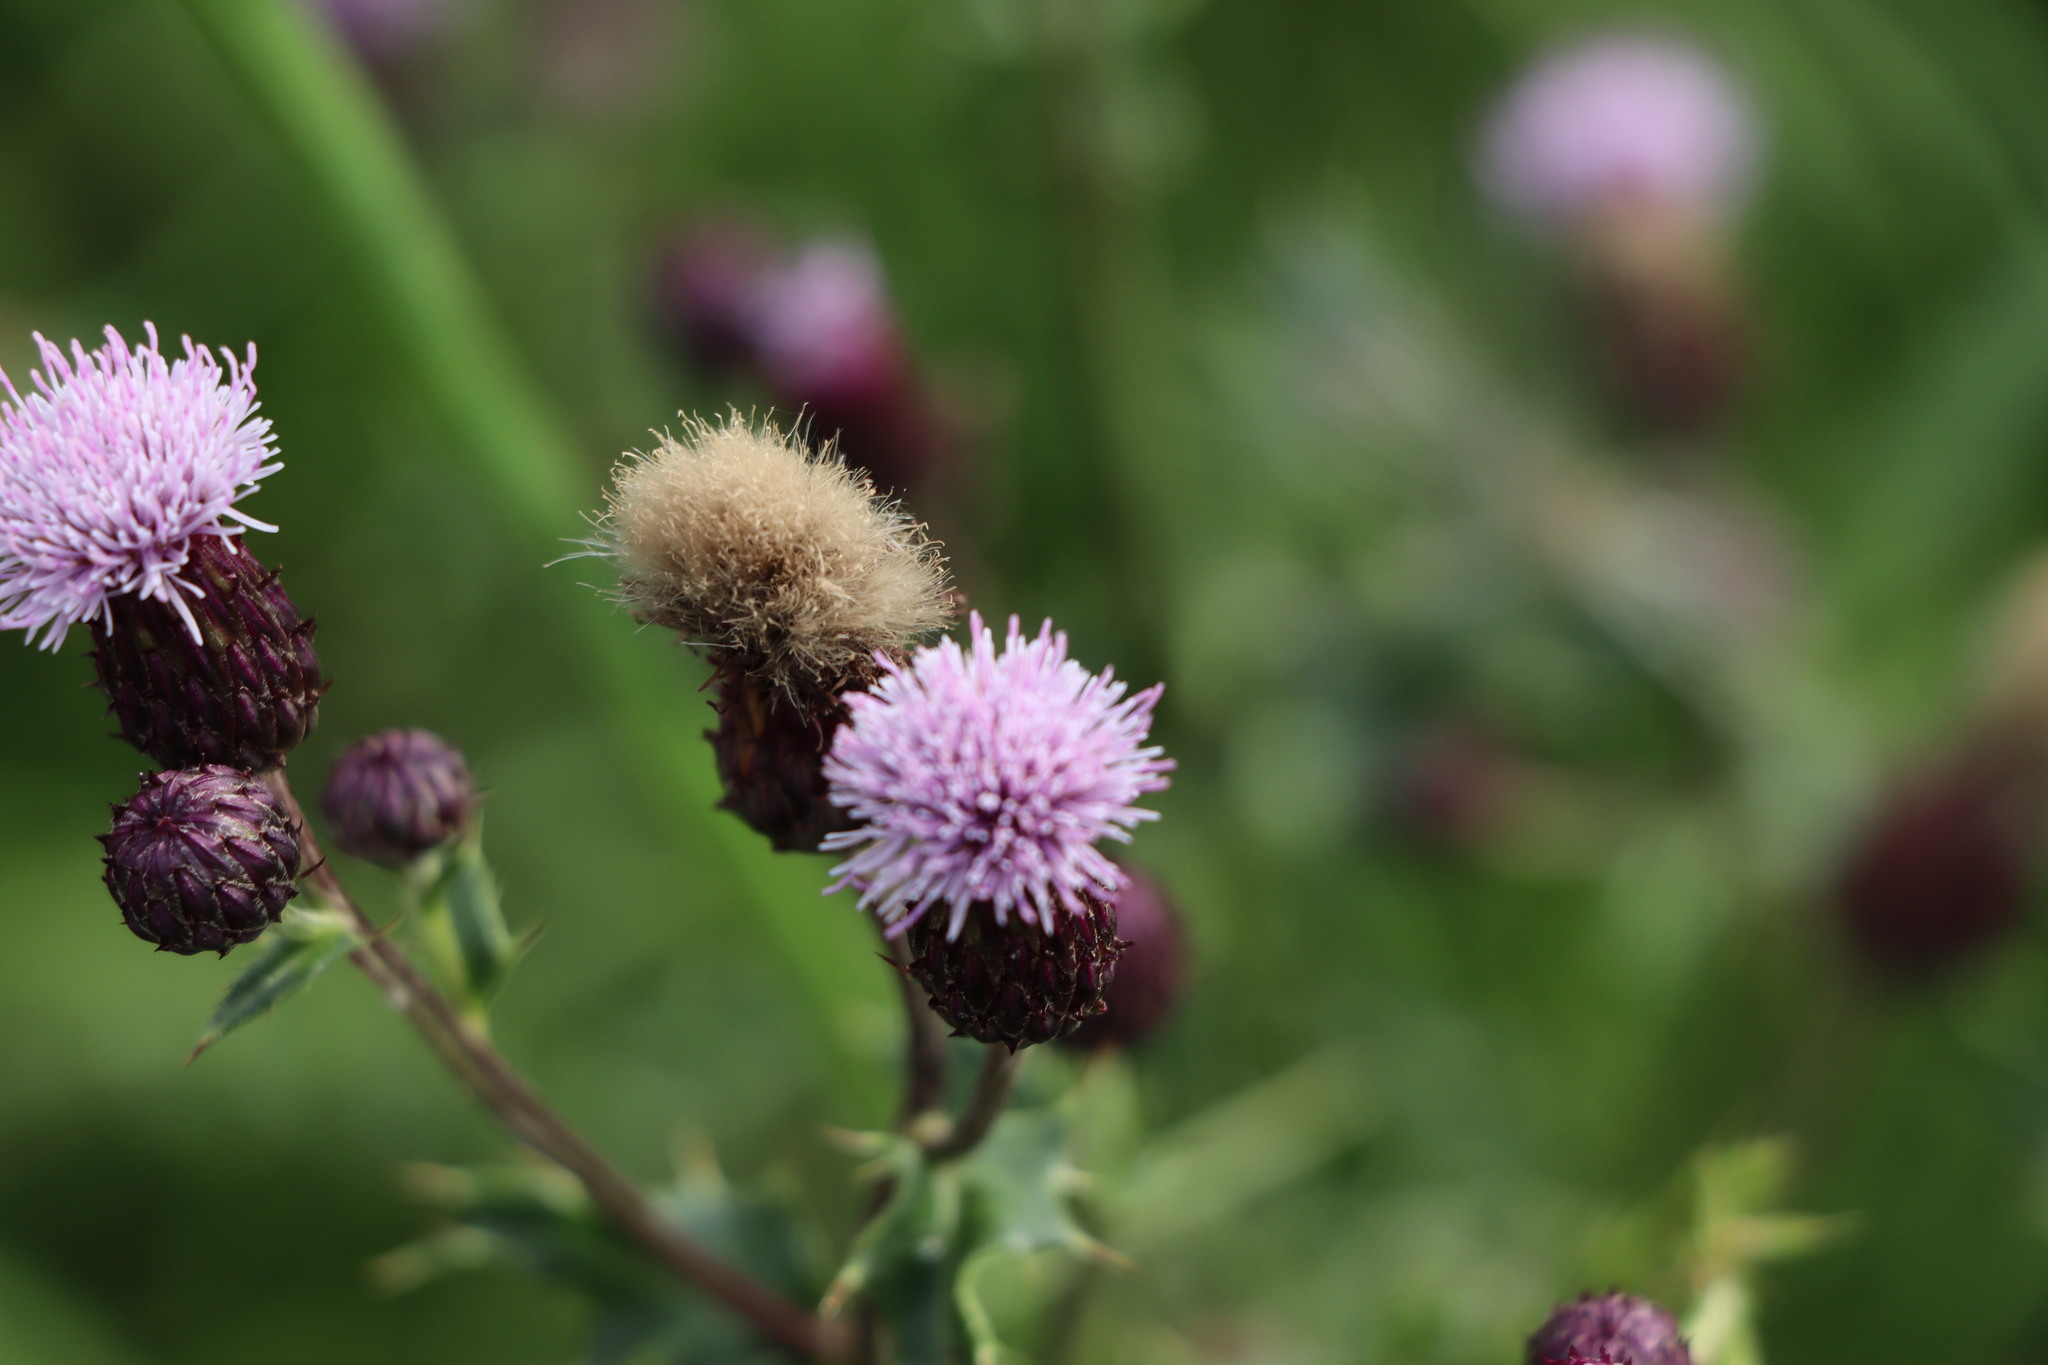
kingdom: Plantae
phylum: Tracheophyta
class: Magnoliopsida
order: Asterales
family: Asteraceae
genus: Cirsium
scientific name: Cirsium arvense
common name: Creeping thistle
